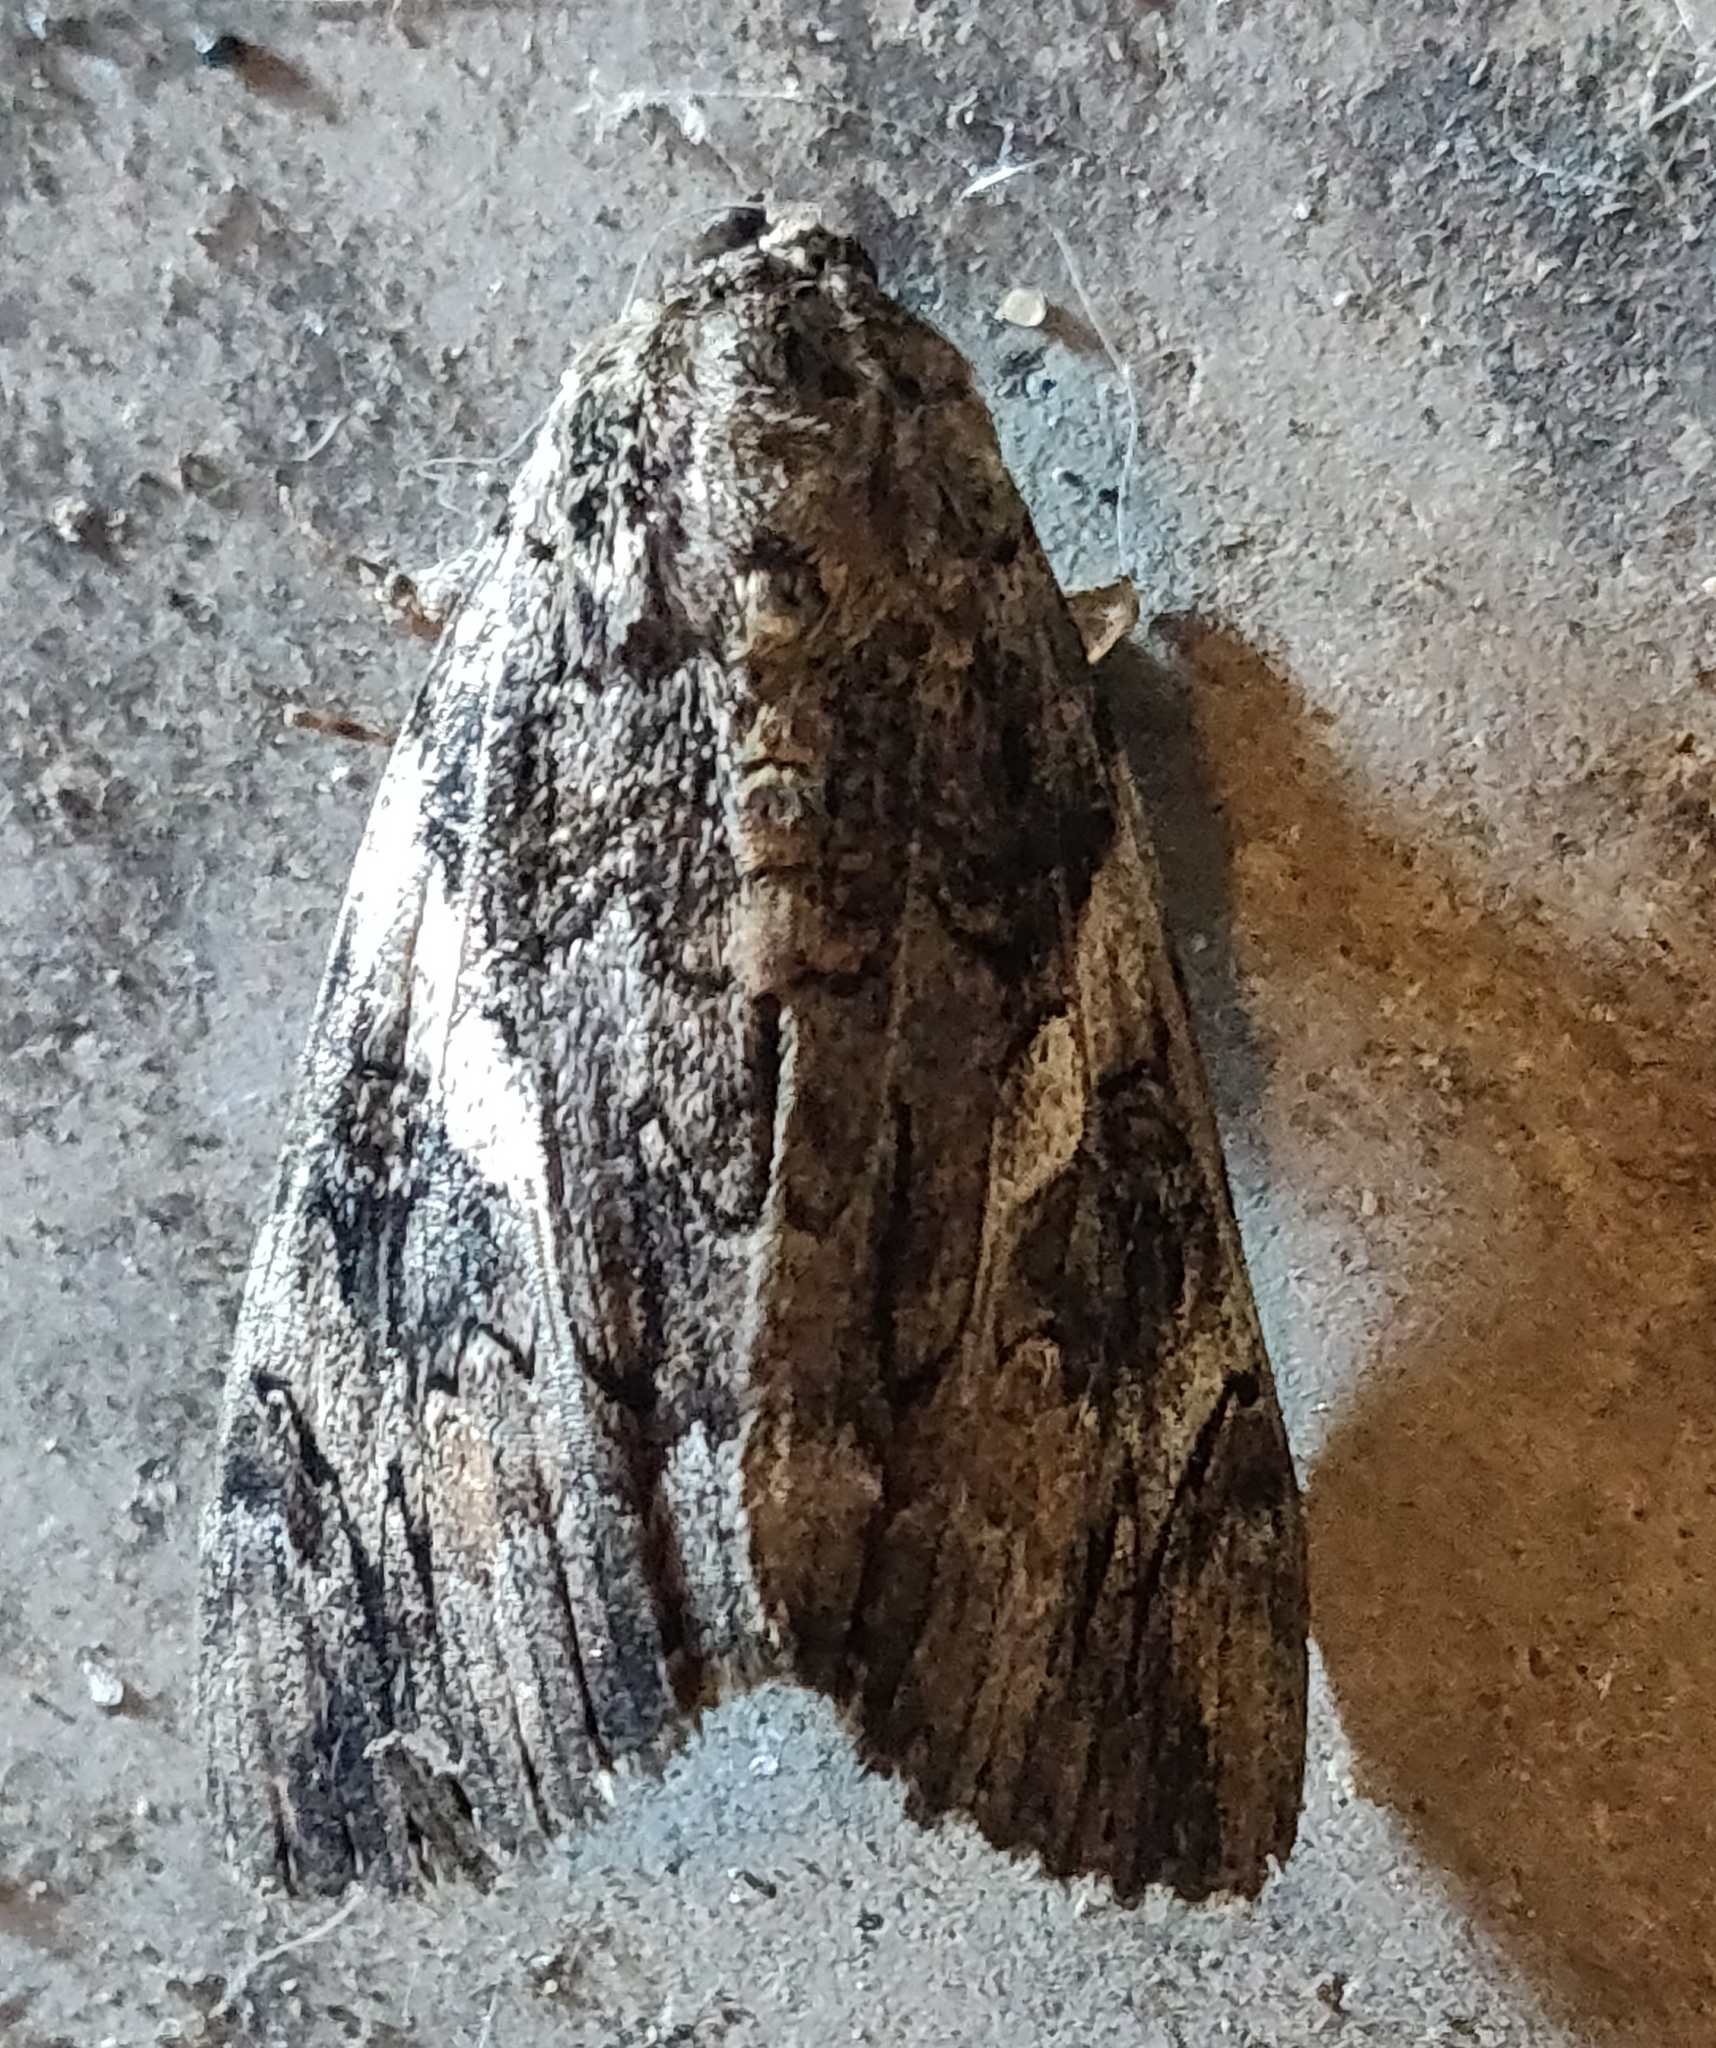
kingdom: Animalia
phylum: Arthropoda
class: Insecta
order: Lepidoptera
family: Erebidae
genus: Catocala
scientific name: Catocala piatrix
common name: The penitent underwing
